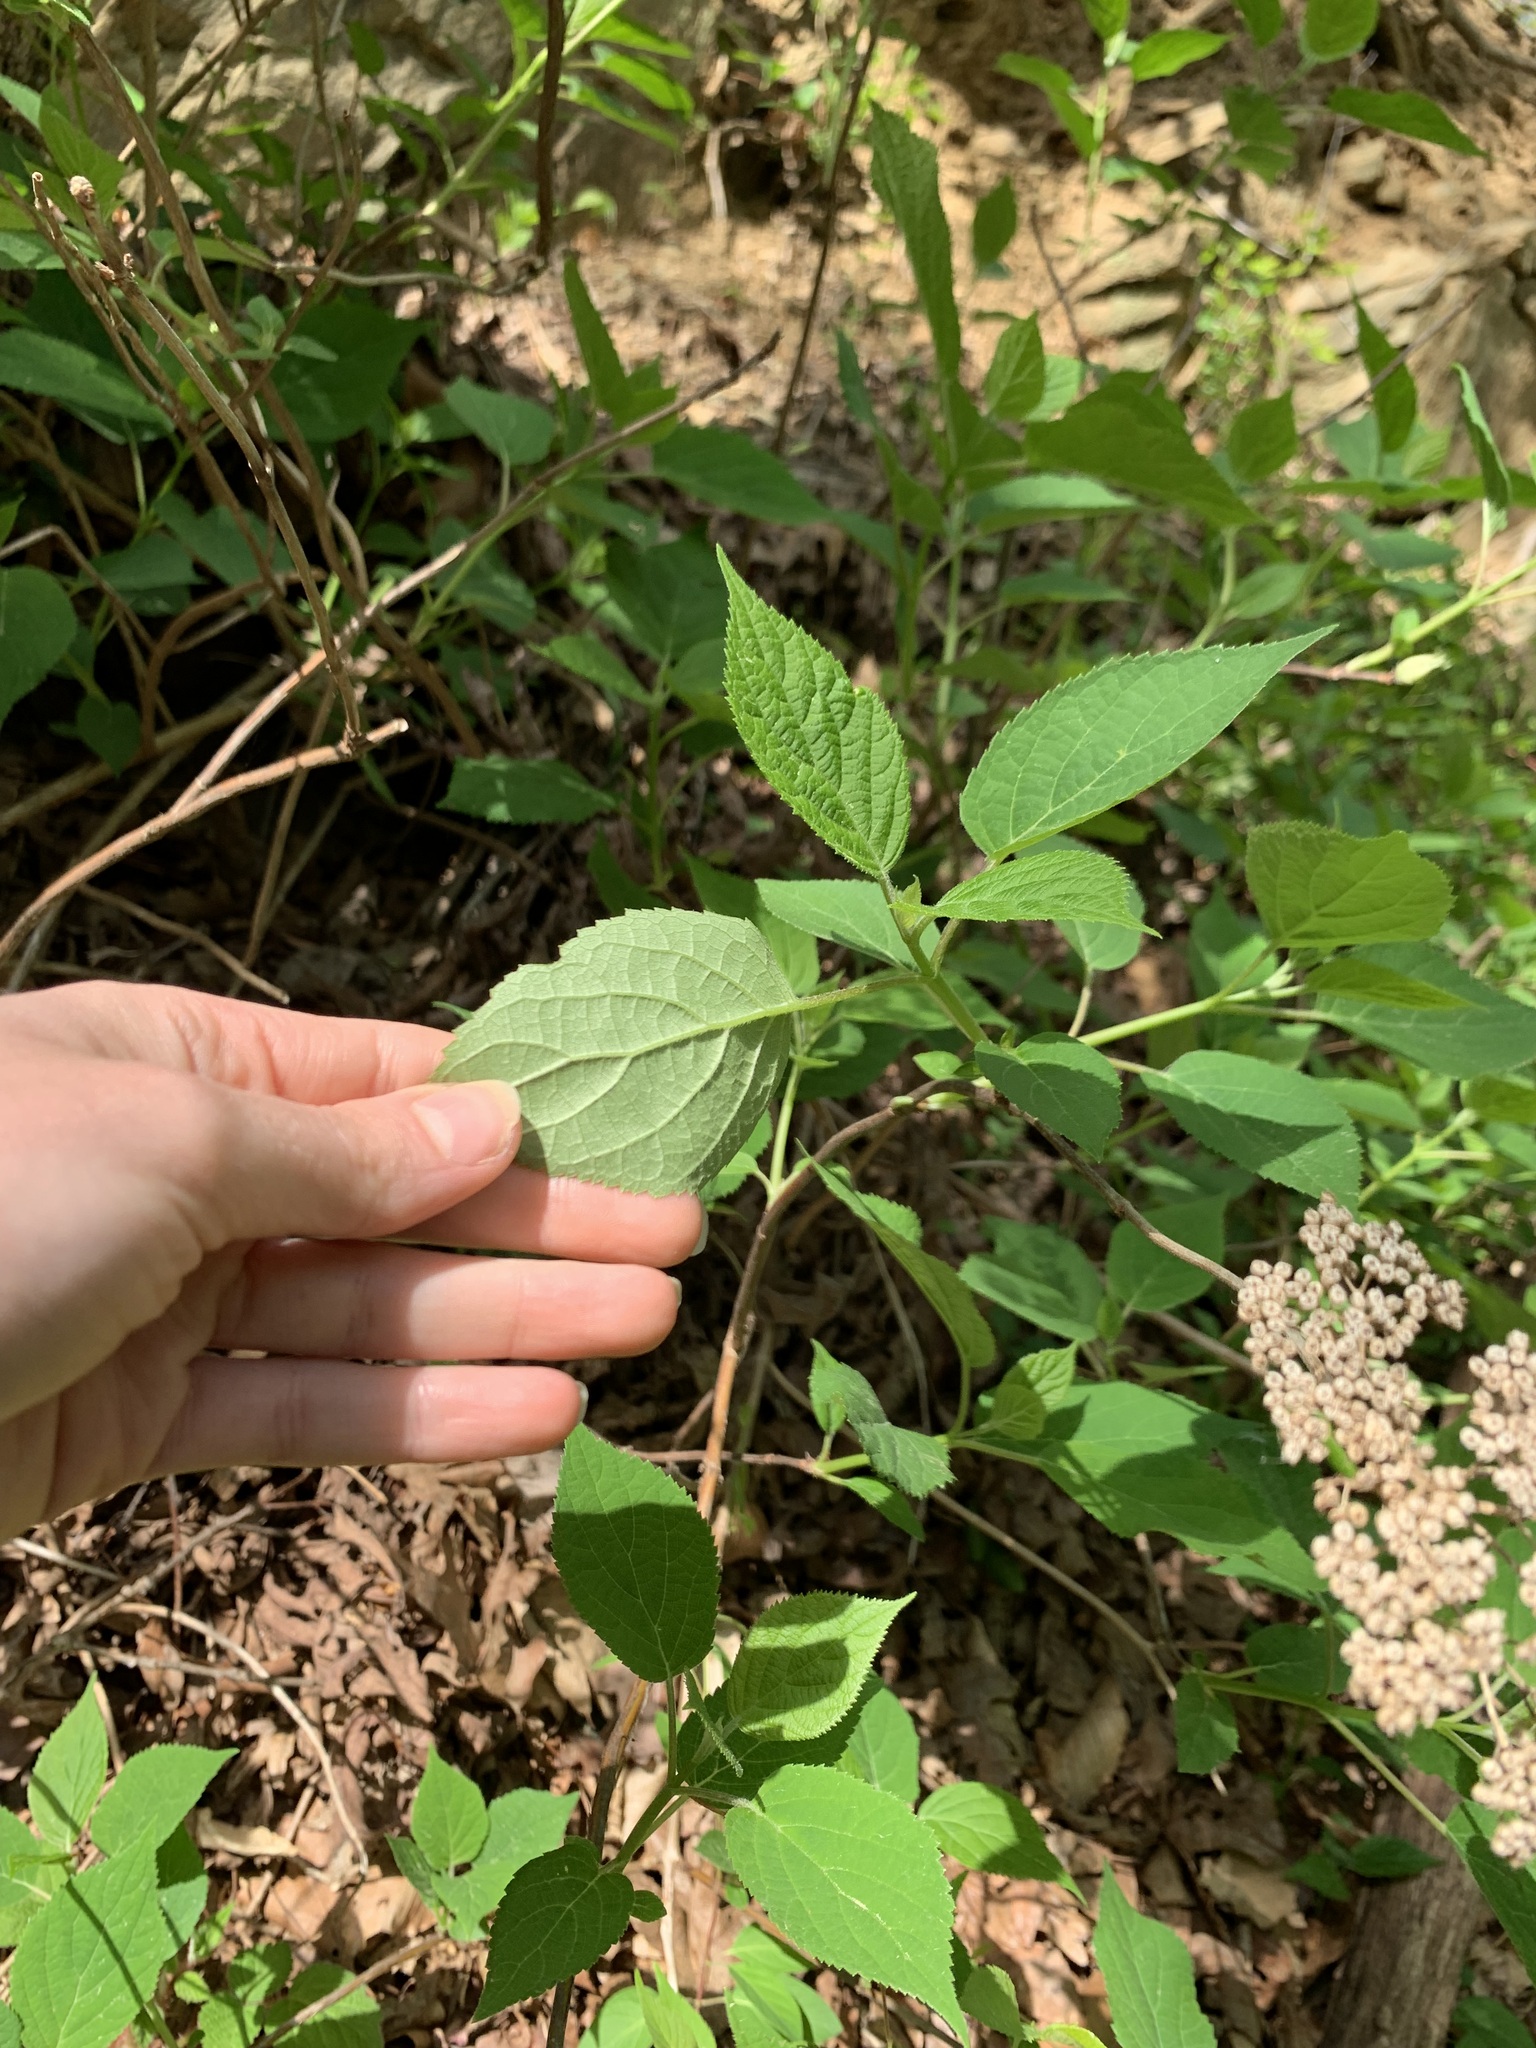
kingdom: Plantae
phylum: Tracheophyta
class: Magnoliopsida
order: Cornales
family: Hydrangeaceae
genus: Hydrangea
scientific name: Hydrangea arborescens
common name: Sevenbark
